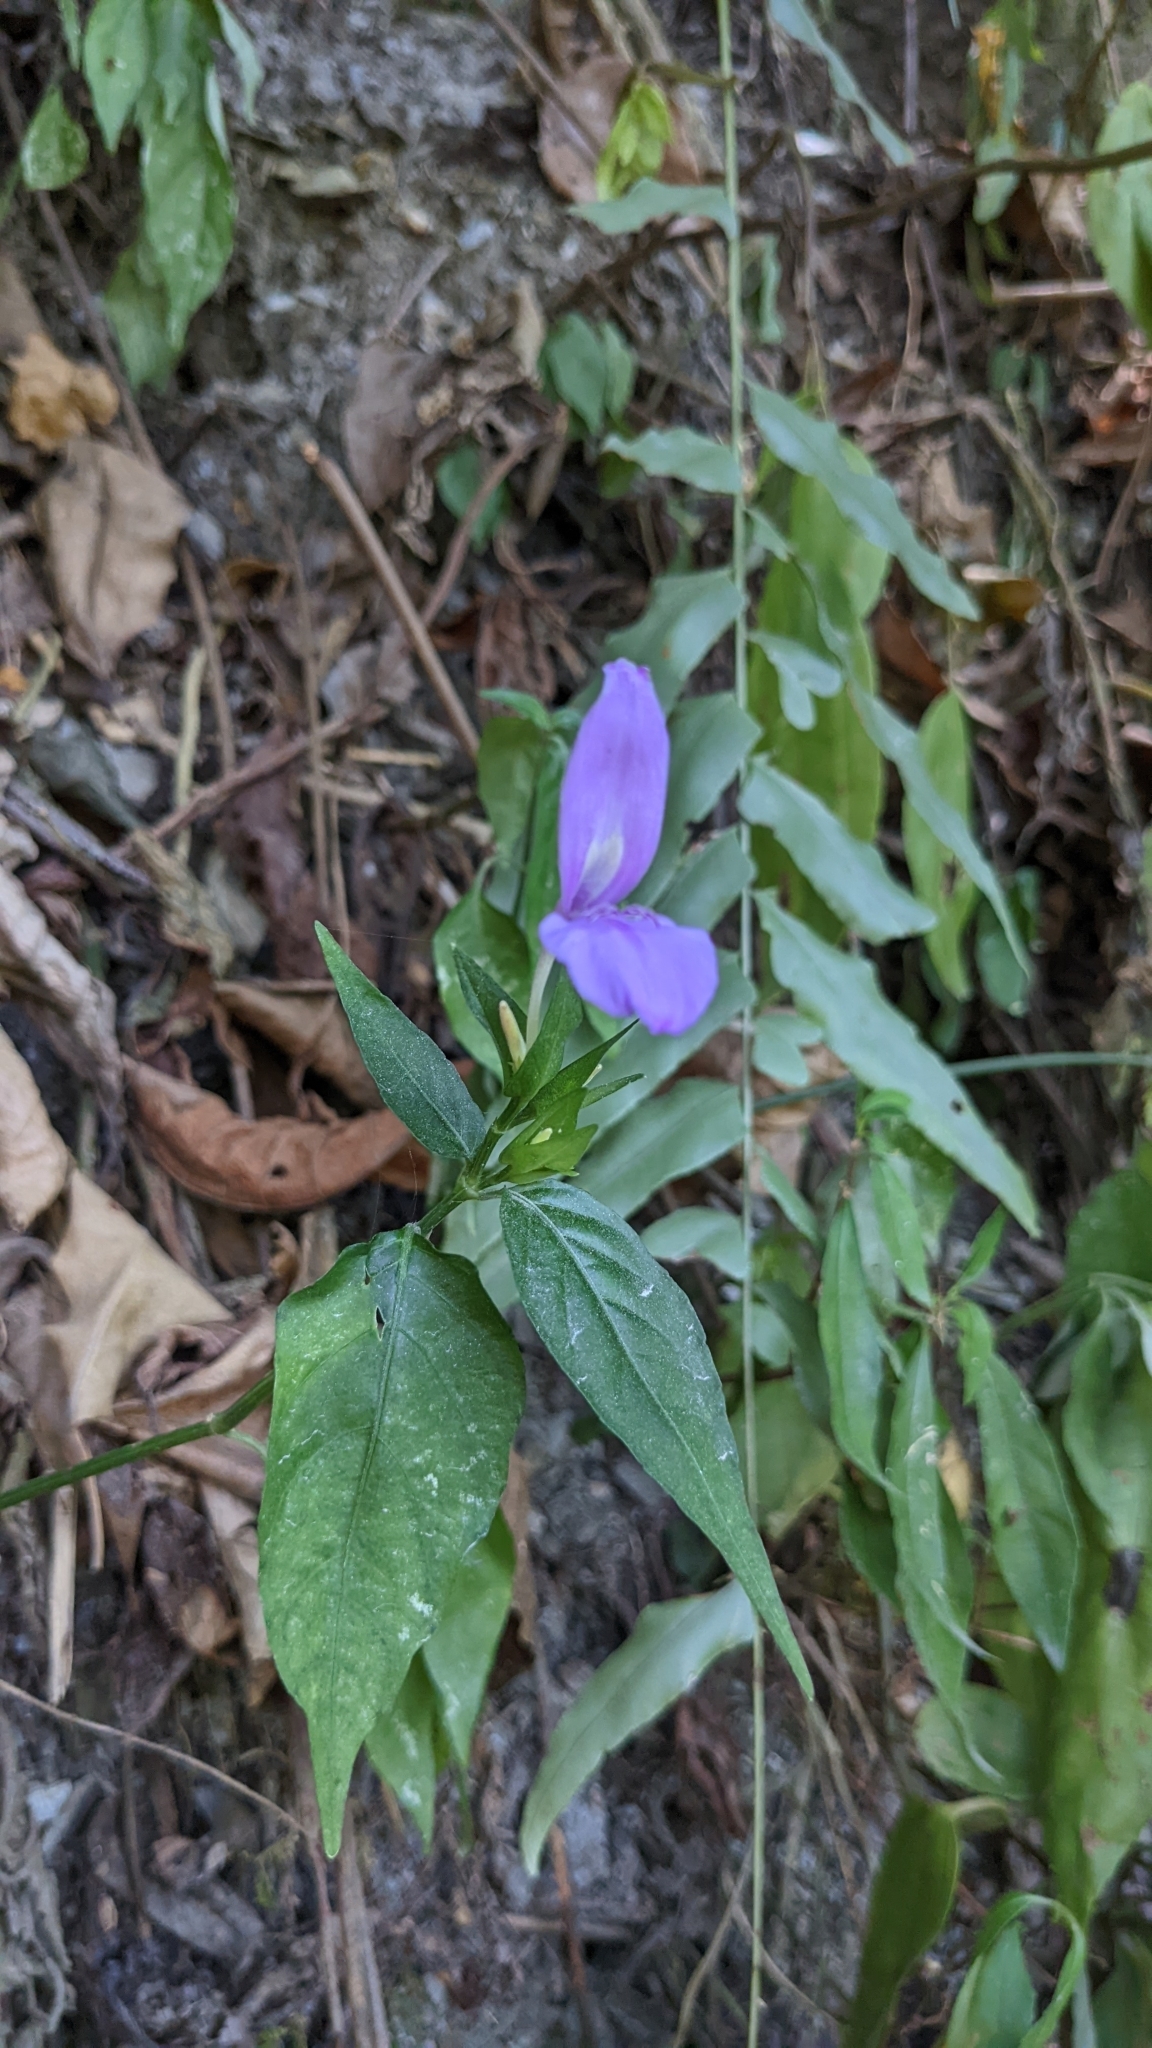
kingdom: Plantae
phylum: Tracheophyta
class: Magnoliopsida
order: Lamiales
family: Acanthaceae
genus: Dicliptera
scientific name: Dicliptera tinctoria
